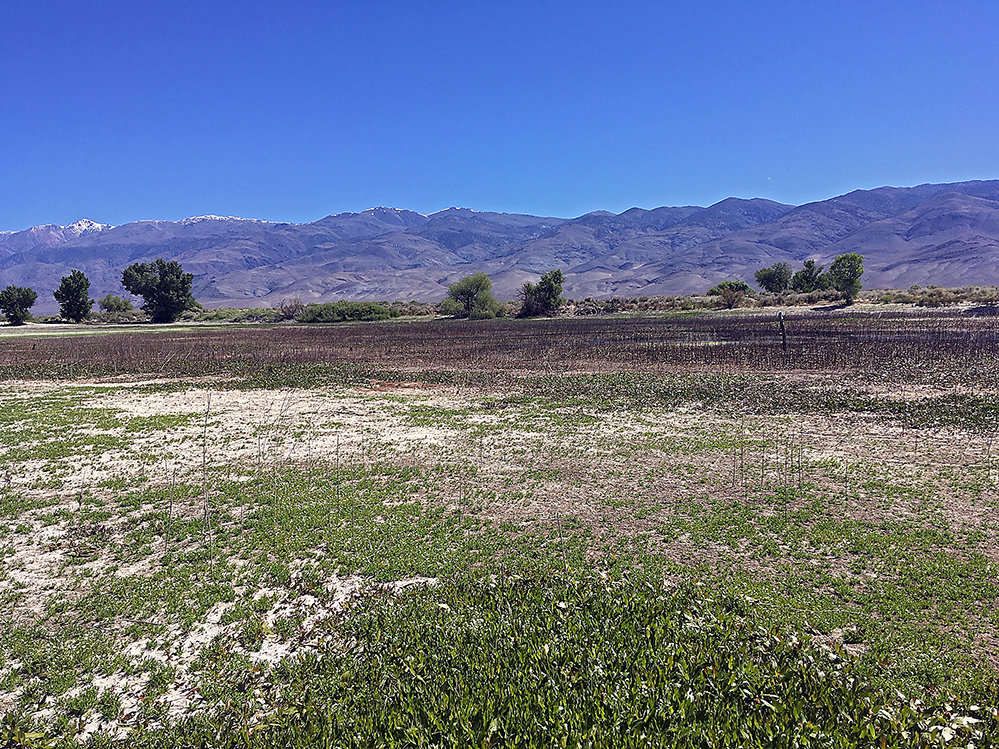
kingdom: Plantae
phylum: Tracheophyta
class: Magnoliopsida
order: Caryophyllales
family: Polygonaceae
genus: Persicaria
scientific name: Persicaria amphibia
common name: Amphibious bistort
